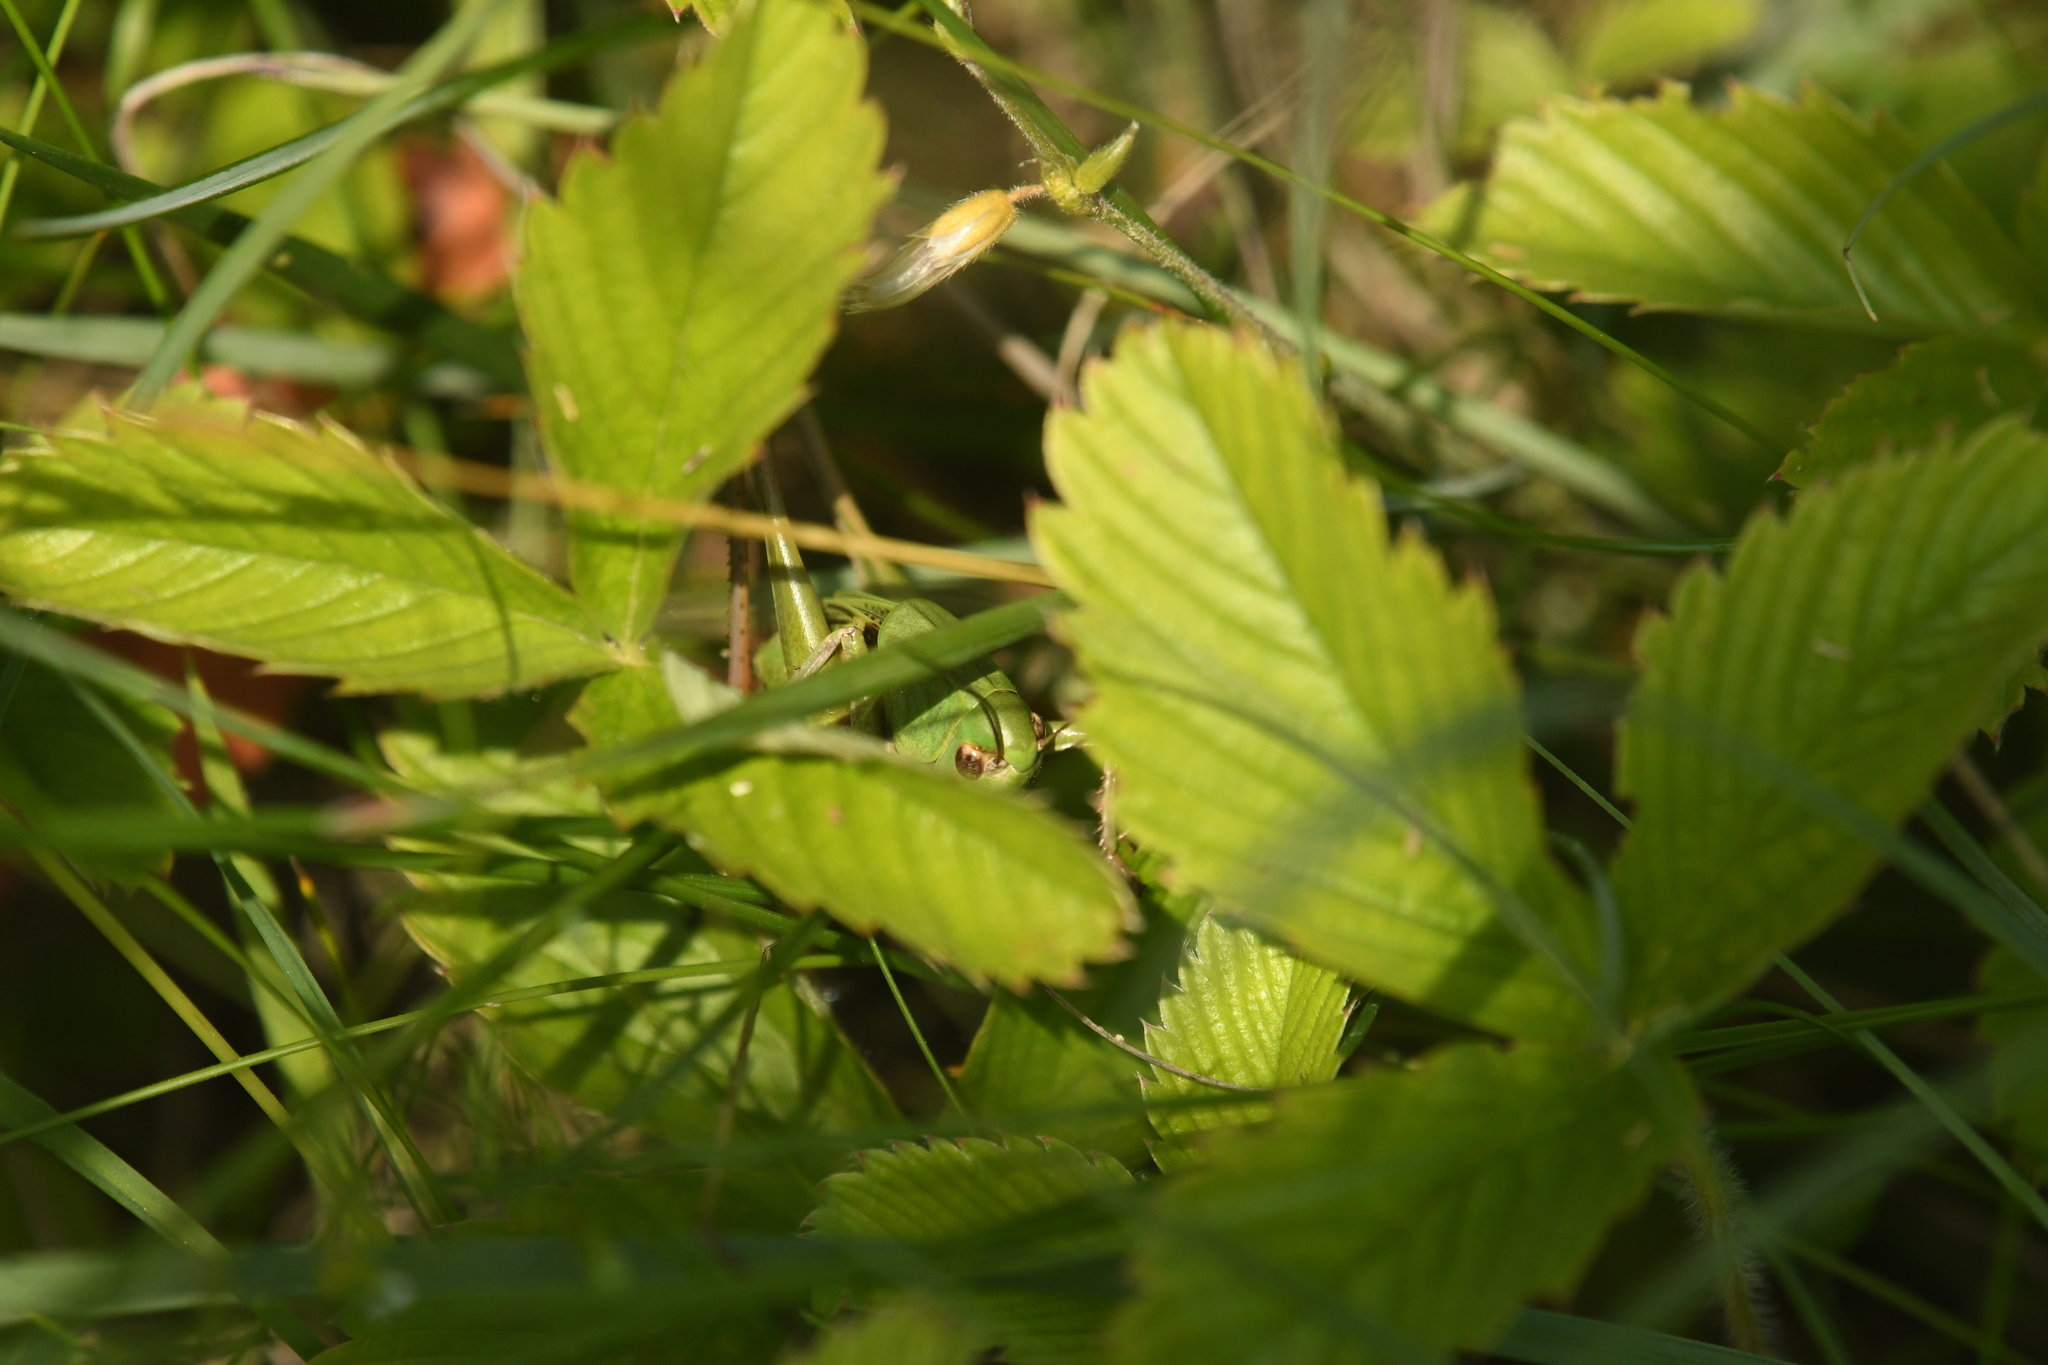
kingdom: Animalia
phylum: Arthropoda
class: Insecta
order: Orthoptera
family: Tettigoniidae
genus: Decticus
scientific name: Decticus verrucivorus
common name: Wart-biter
